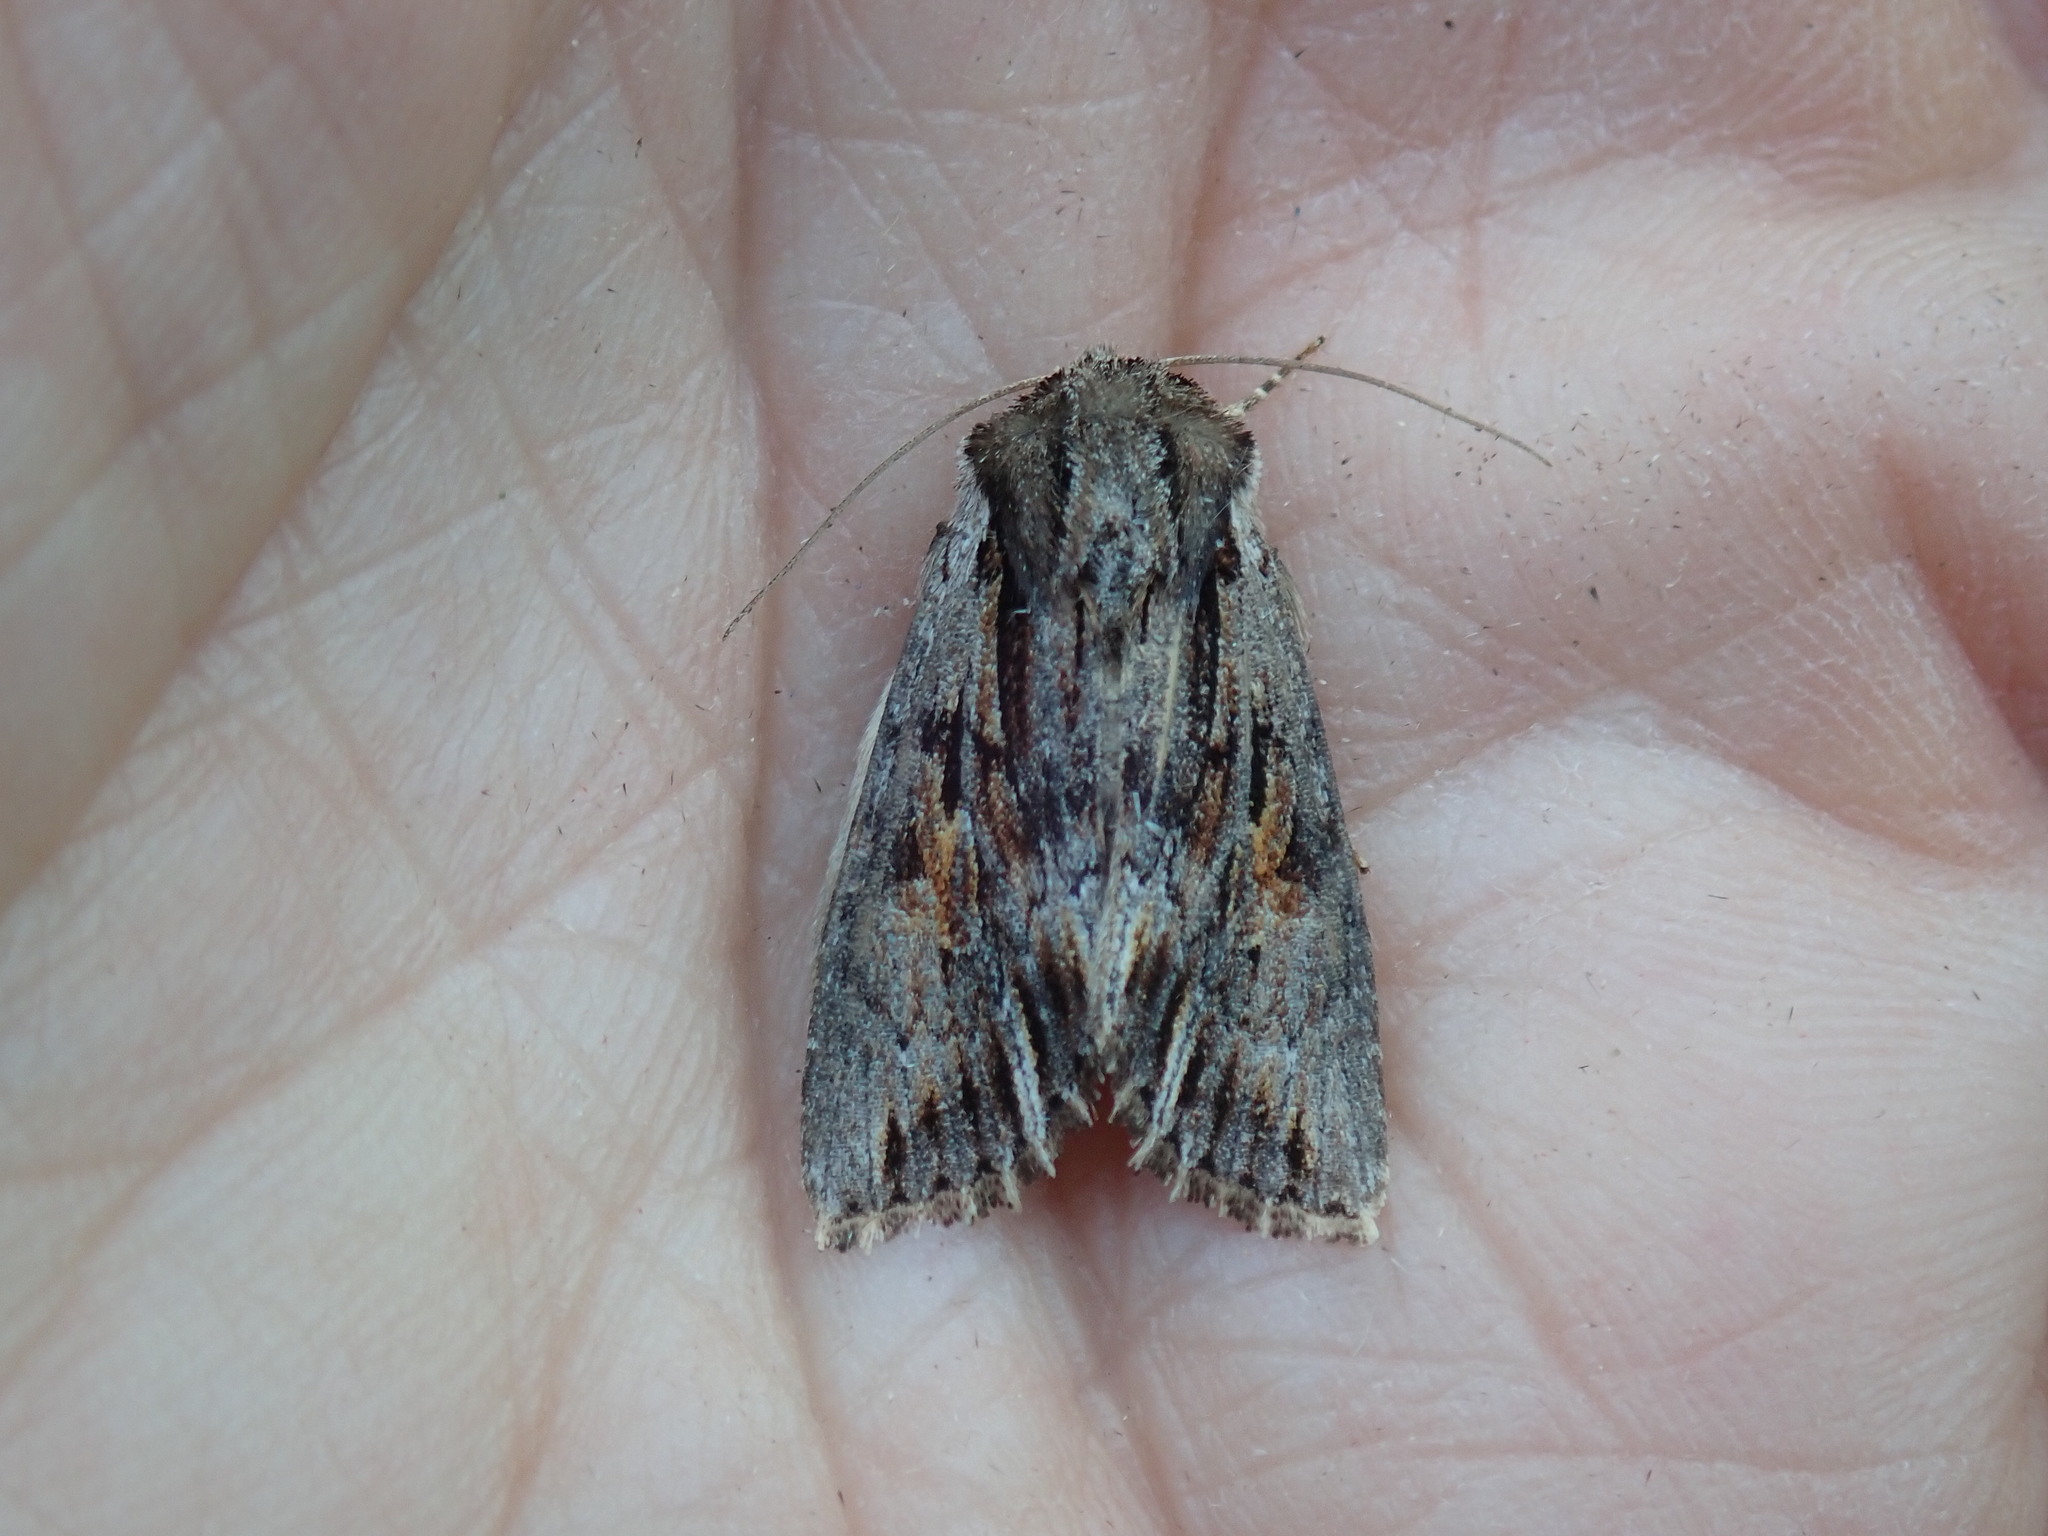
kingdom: Animalia
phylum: Arthropoda
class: Insecta
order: Lepidoptera
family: Noctuidae
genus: Achatia
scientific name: Achatia evicta
